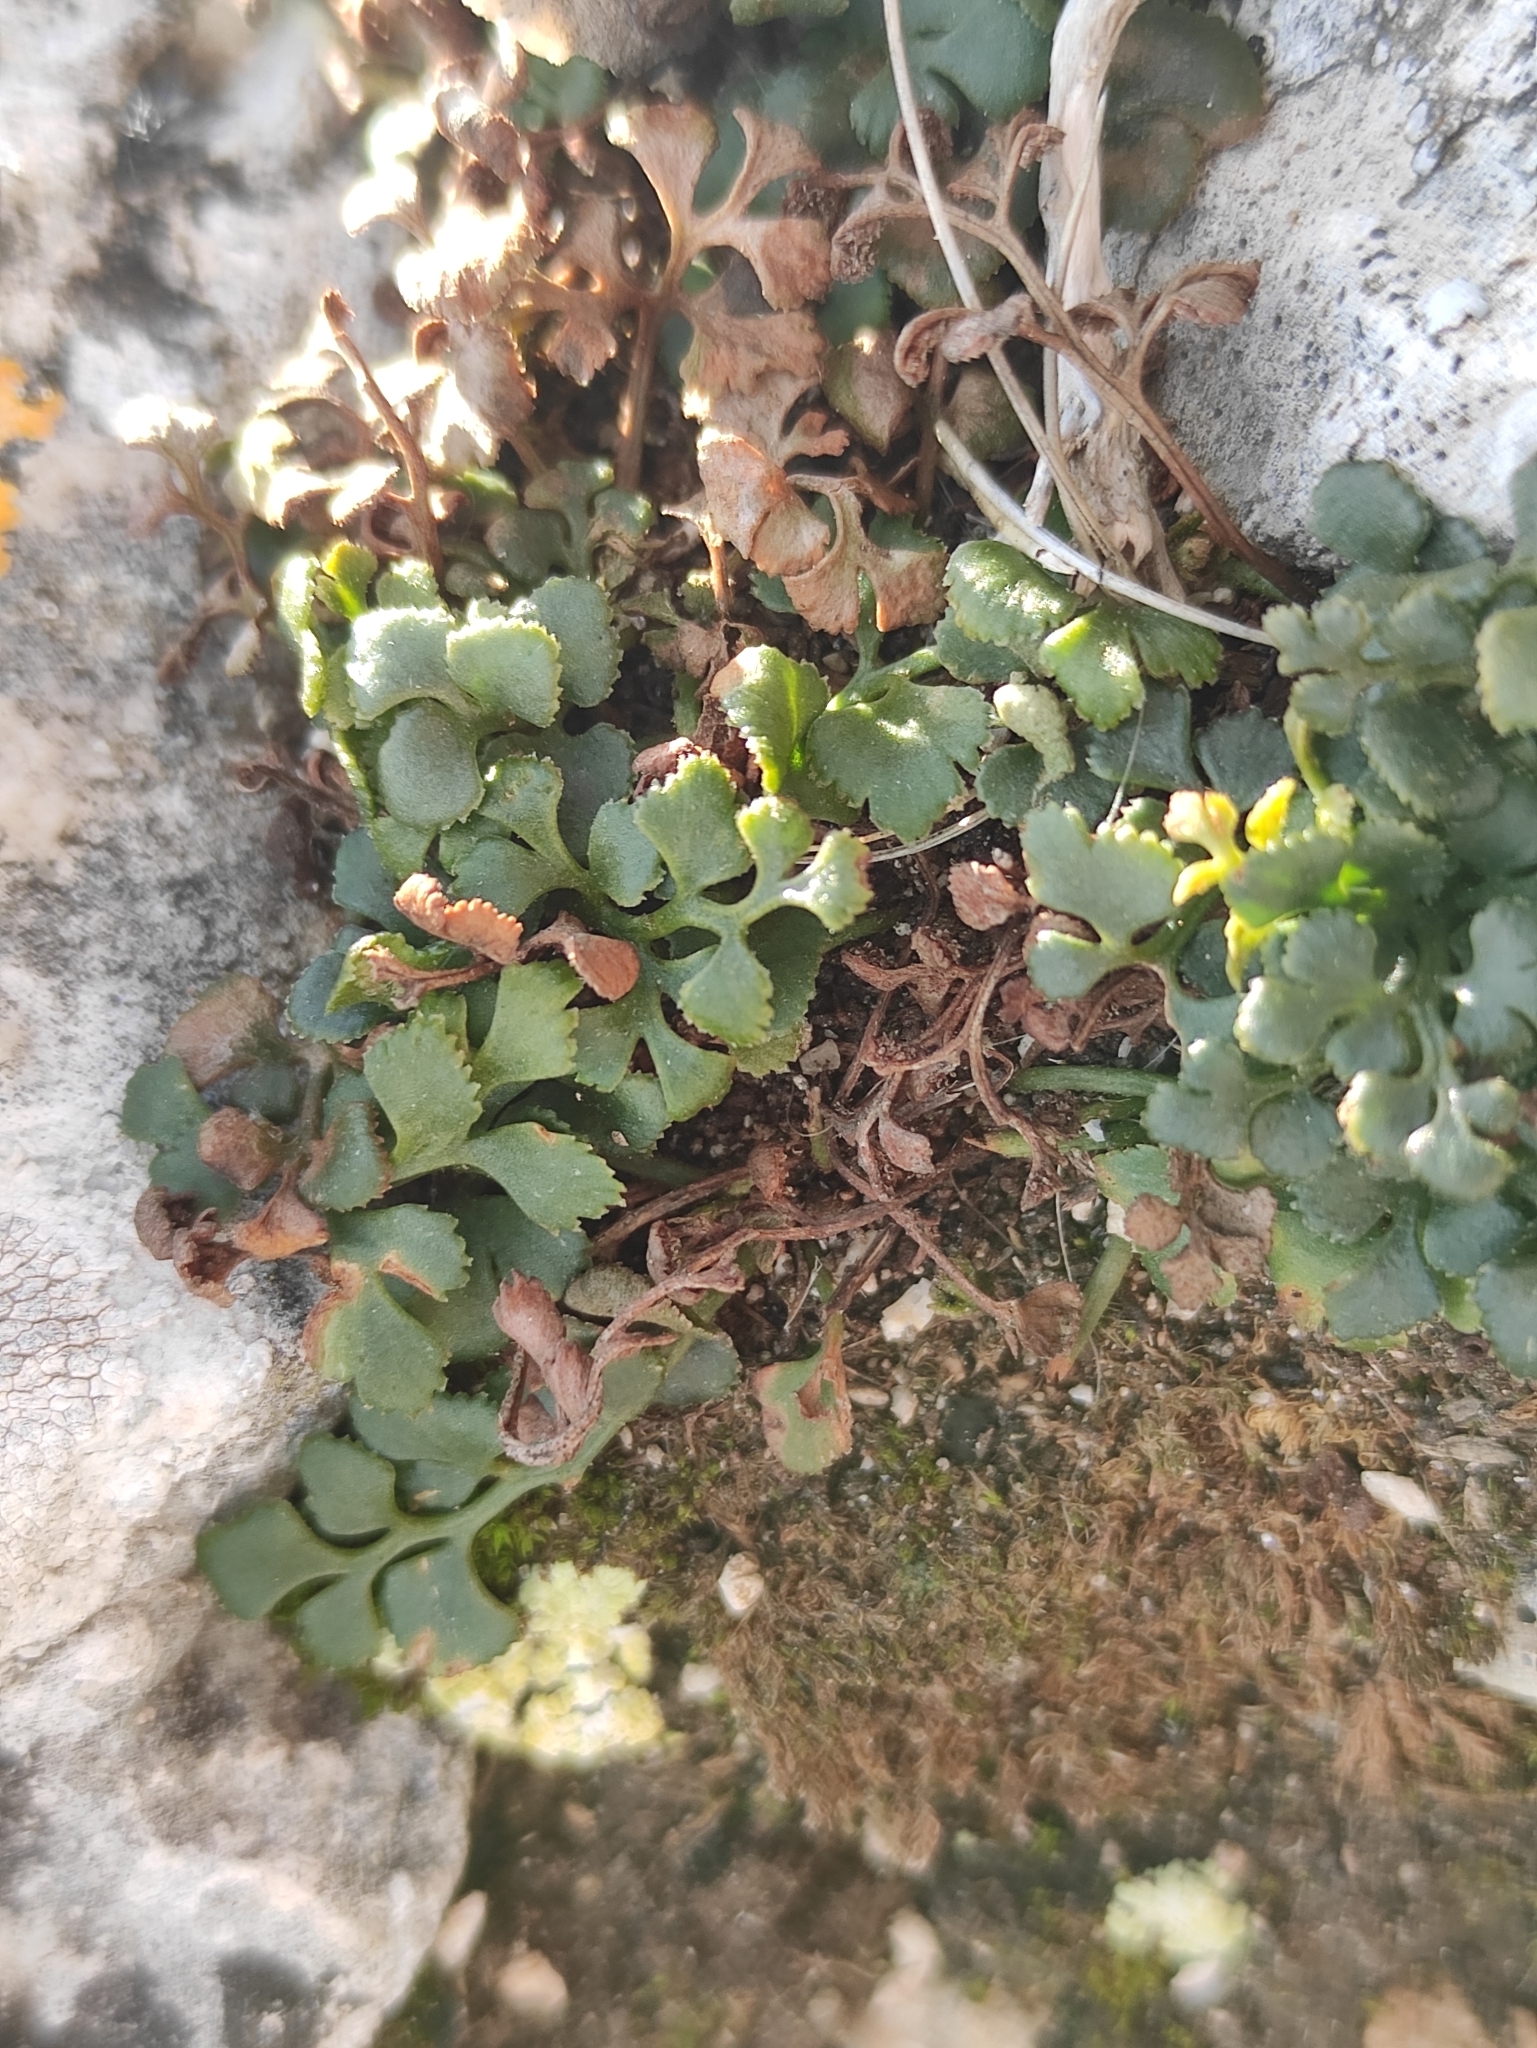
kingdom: Plantae
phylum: Tracheophyta
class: Polypodiopsida
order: Polypodiales
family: Aspleniaceae
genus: Asplenium
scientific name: Asplenium ruta-muraria
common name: Wall-rue
